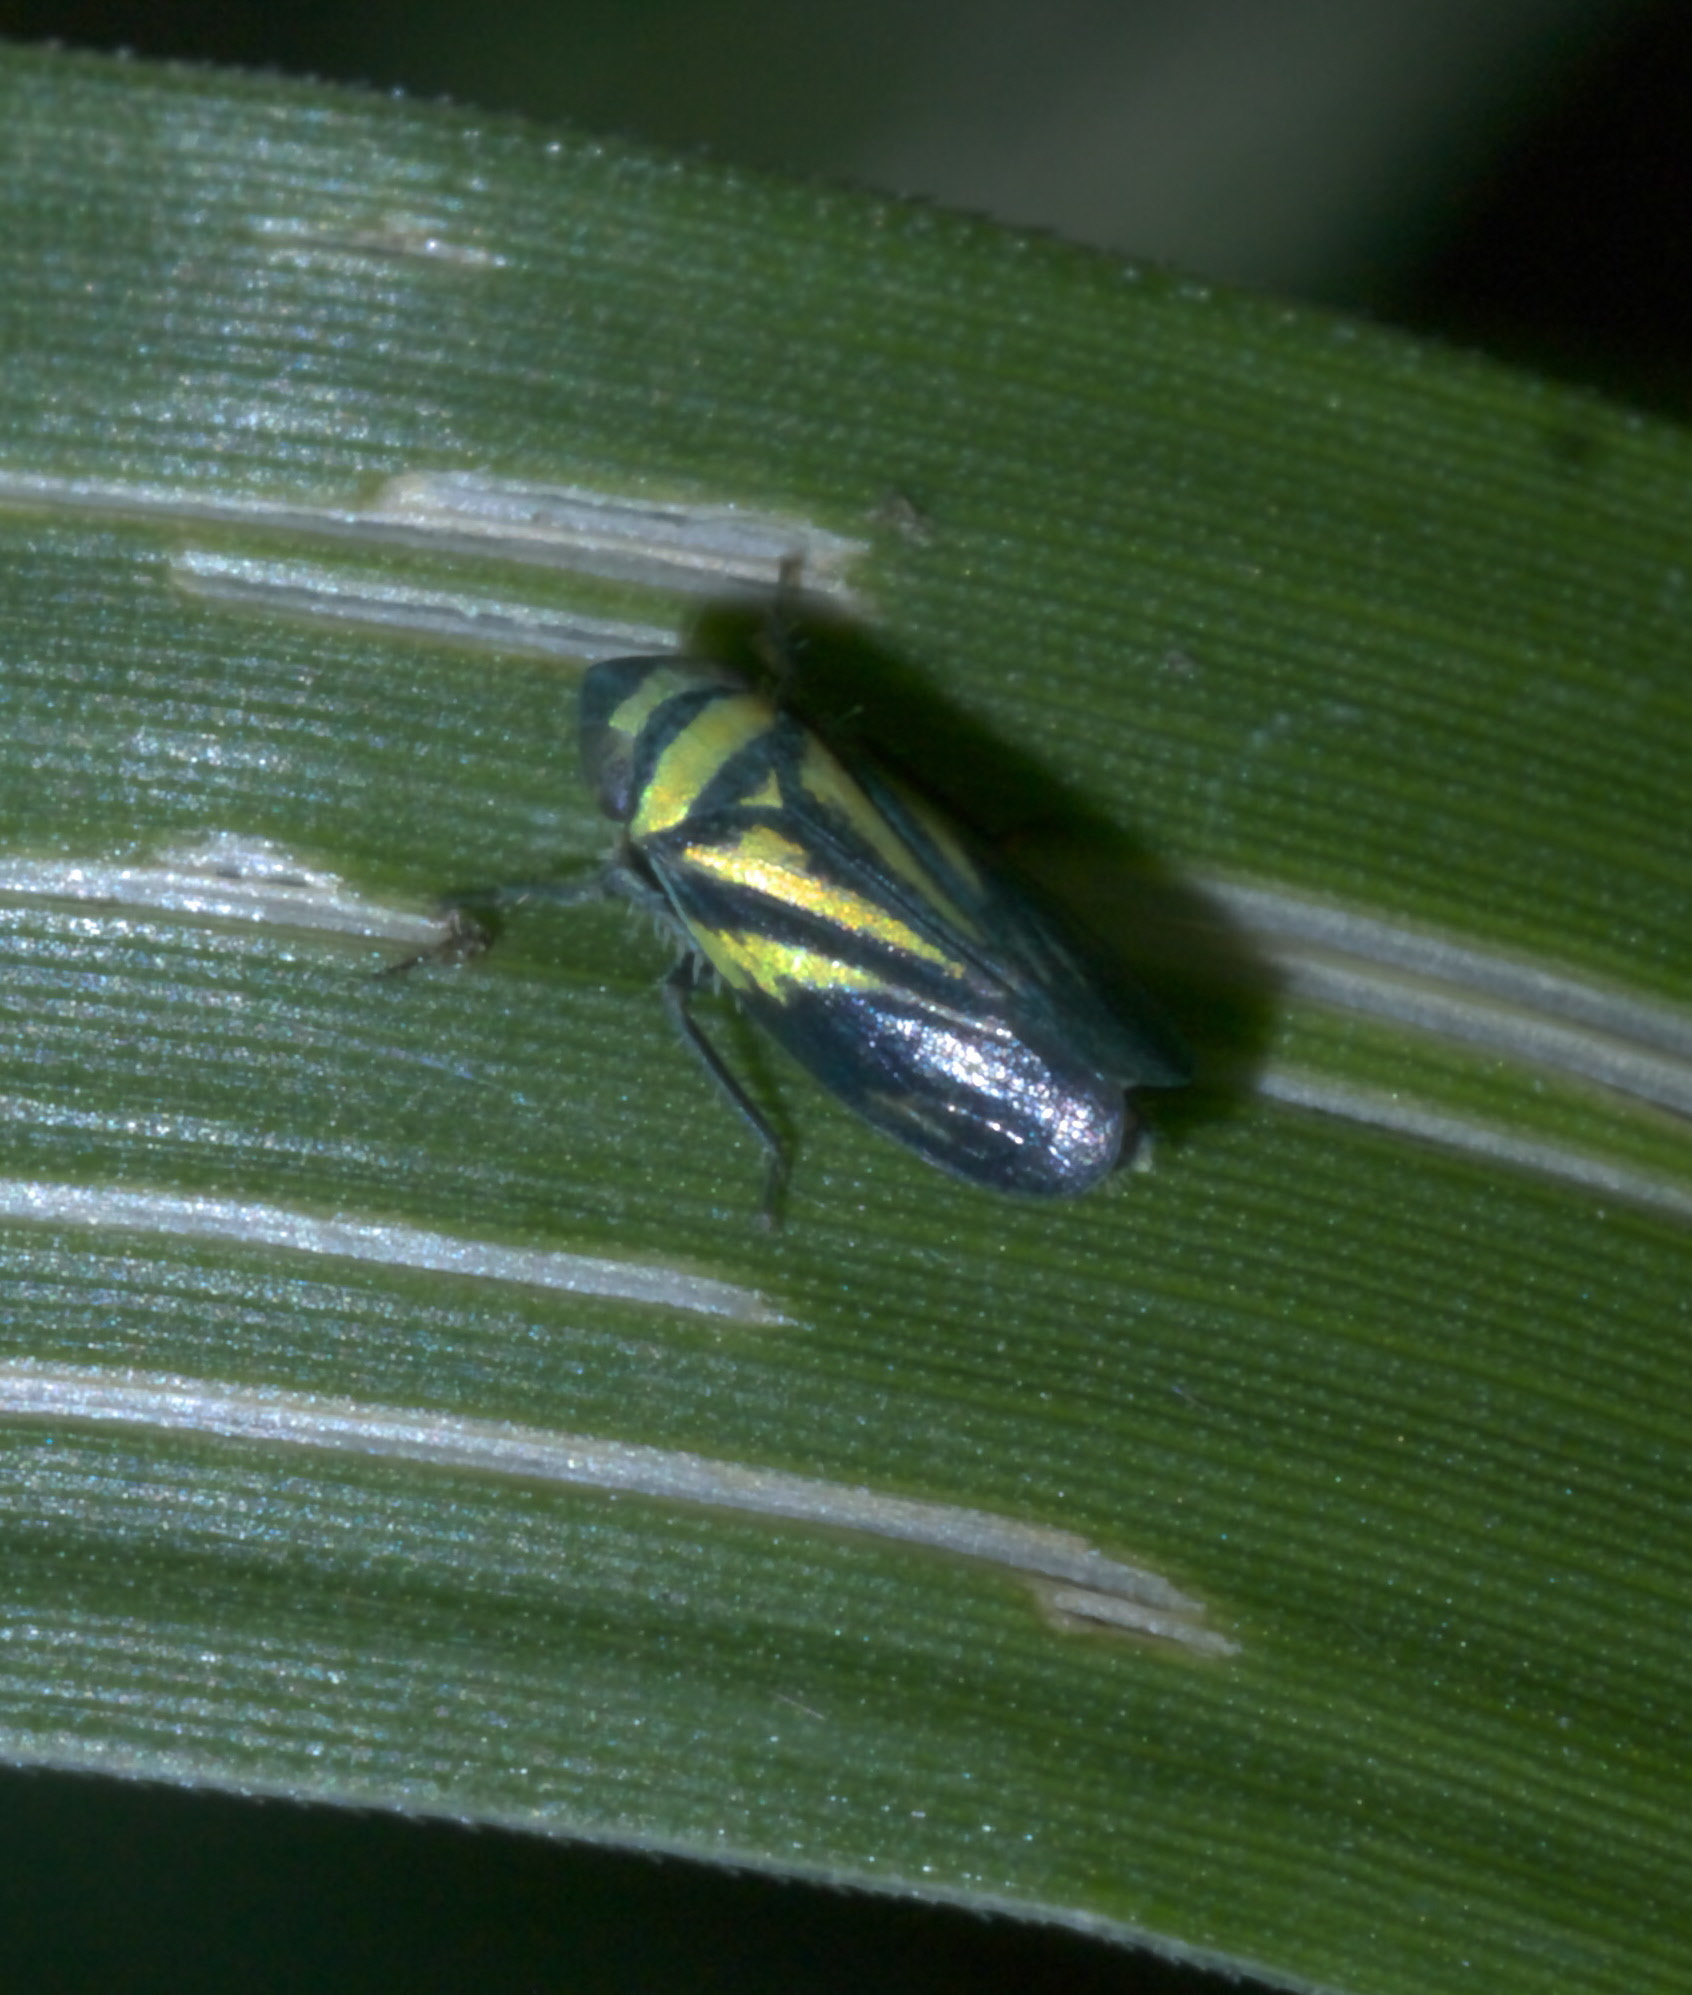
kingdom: Animalia
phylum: Arthropoda
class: Insecta
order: Hemiptera
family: Cicadellidae
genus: Stirellus
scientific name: Stirellus bicolor
